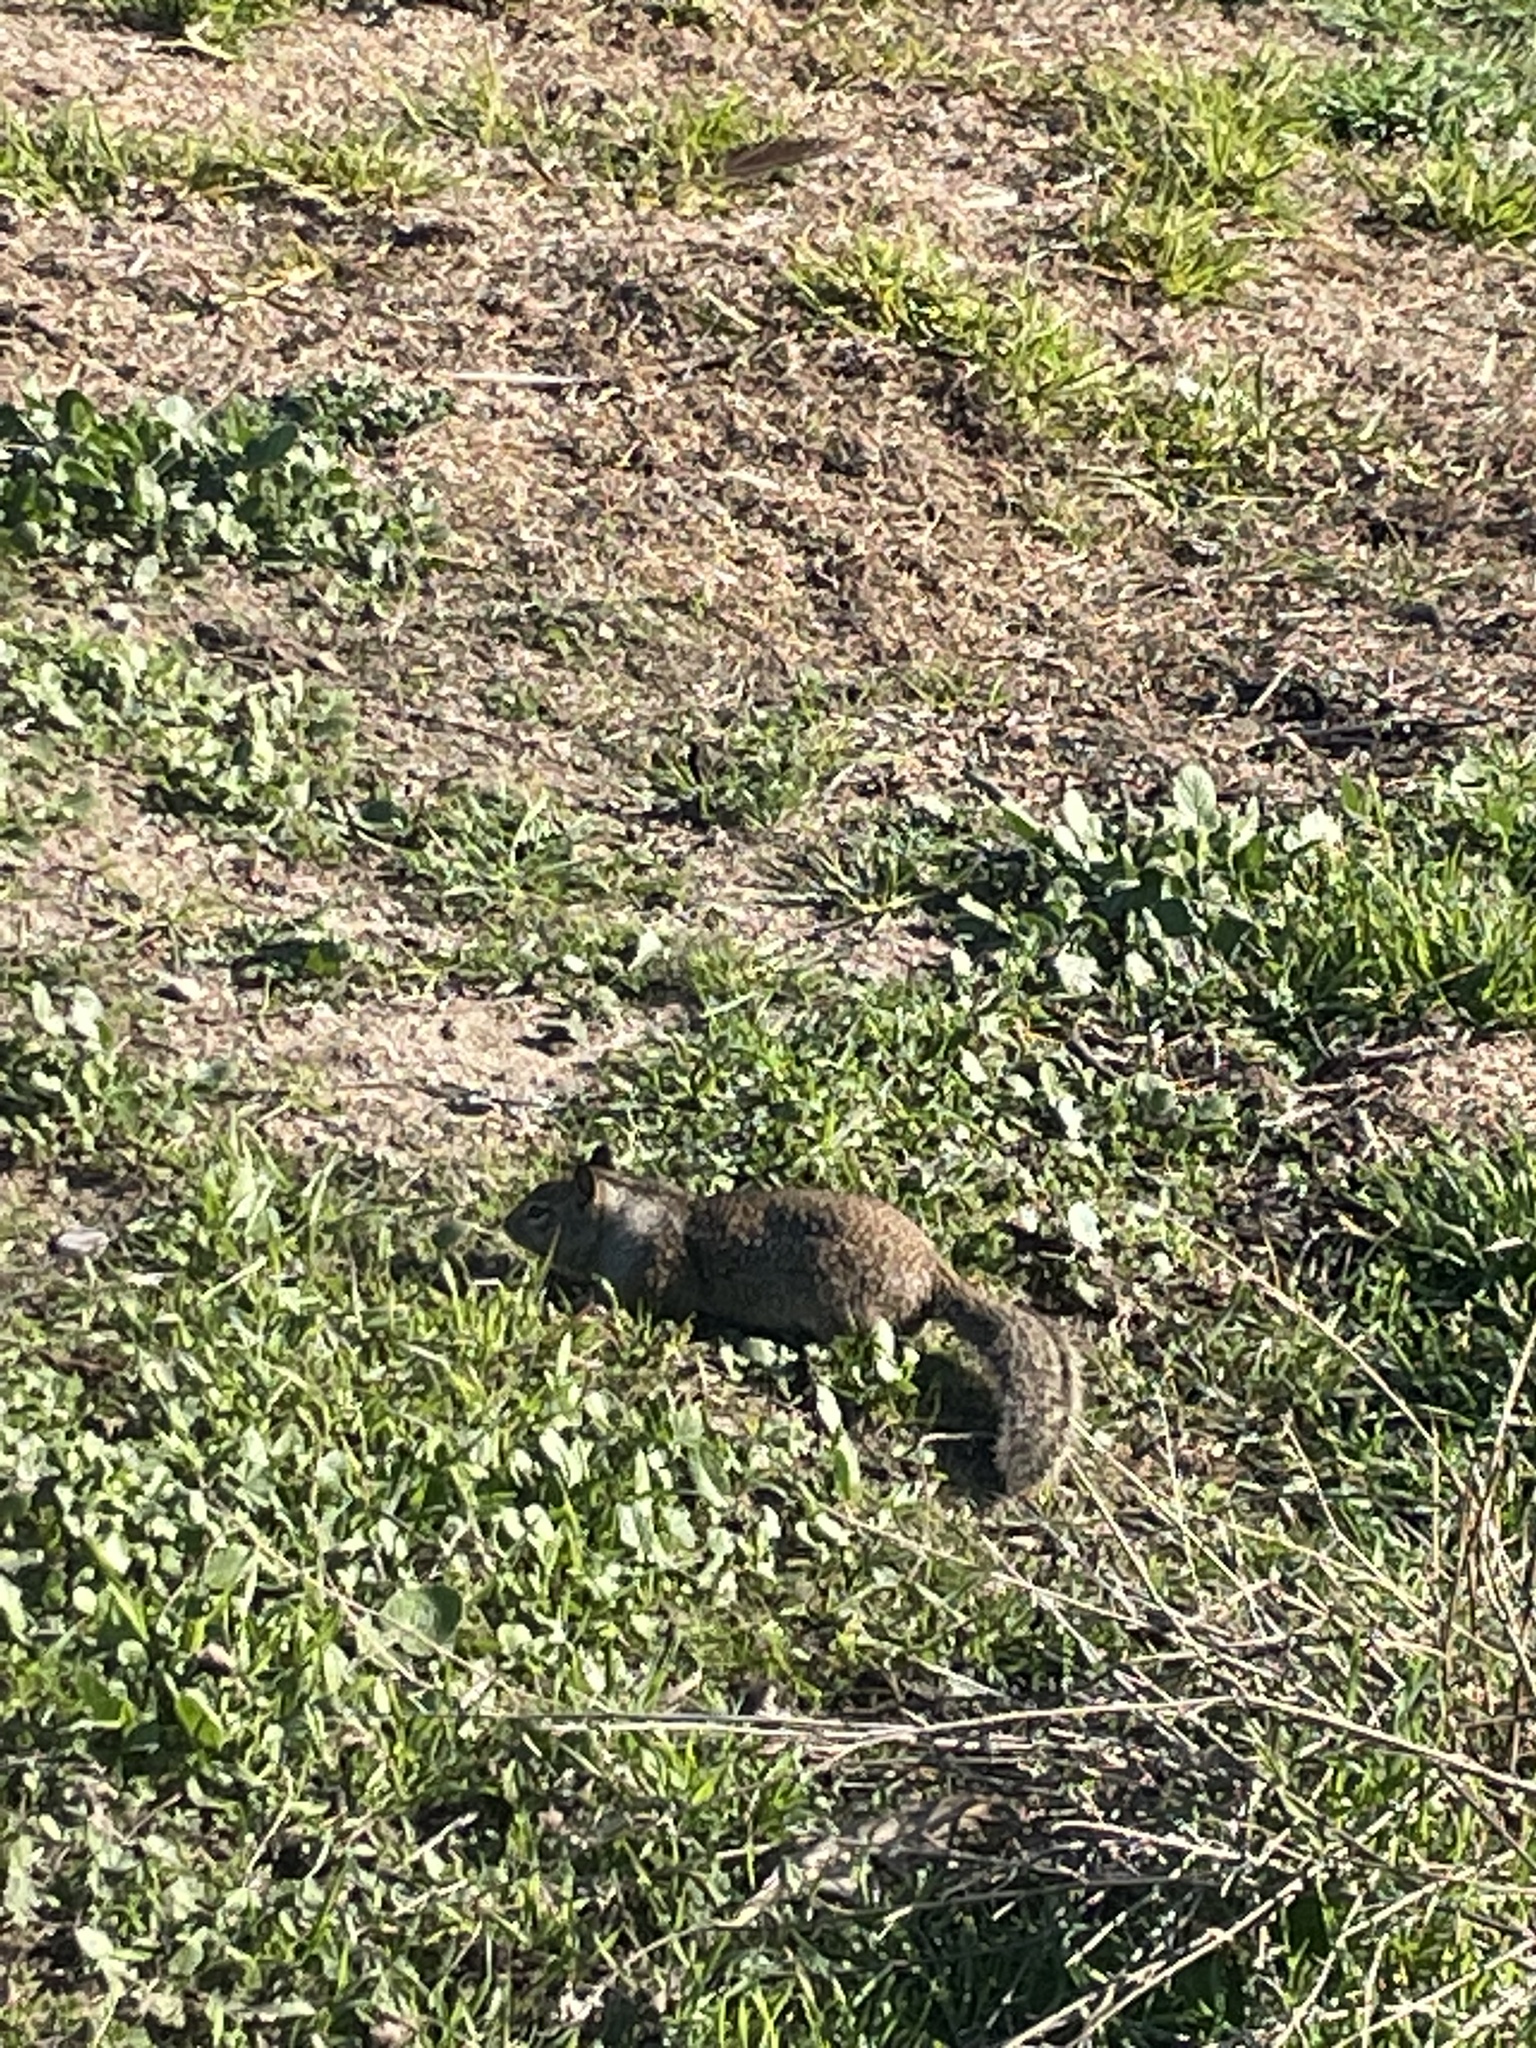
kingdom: Animalia
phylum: Chordata
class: Mammalia
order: Rodentia
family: Sciuridae
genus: Otospermophilus
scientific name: Otospermophilus beecheyi
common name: California ground squirrel
